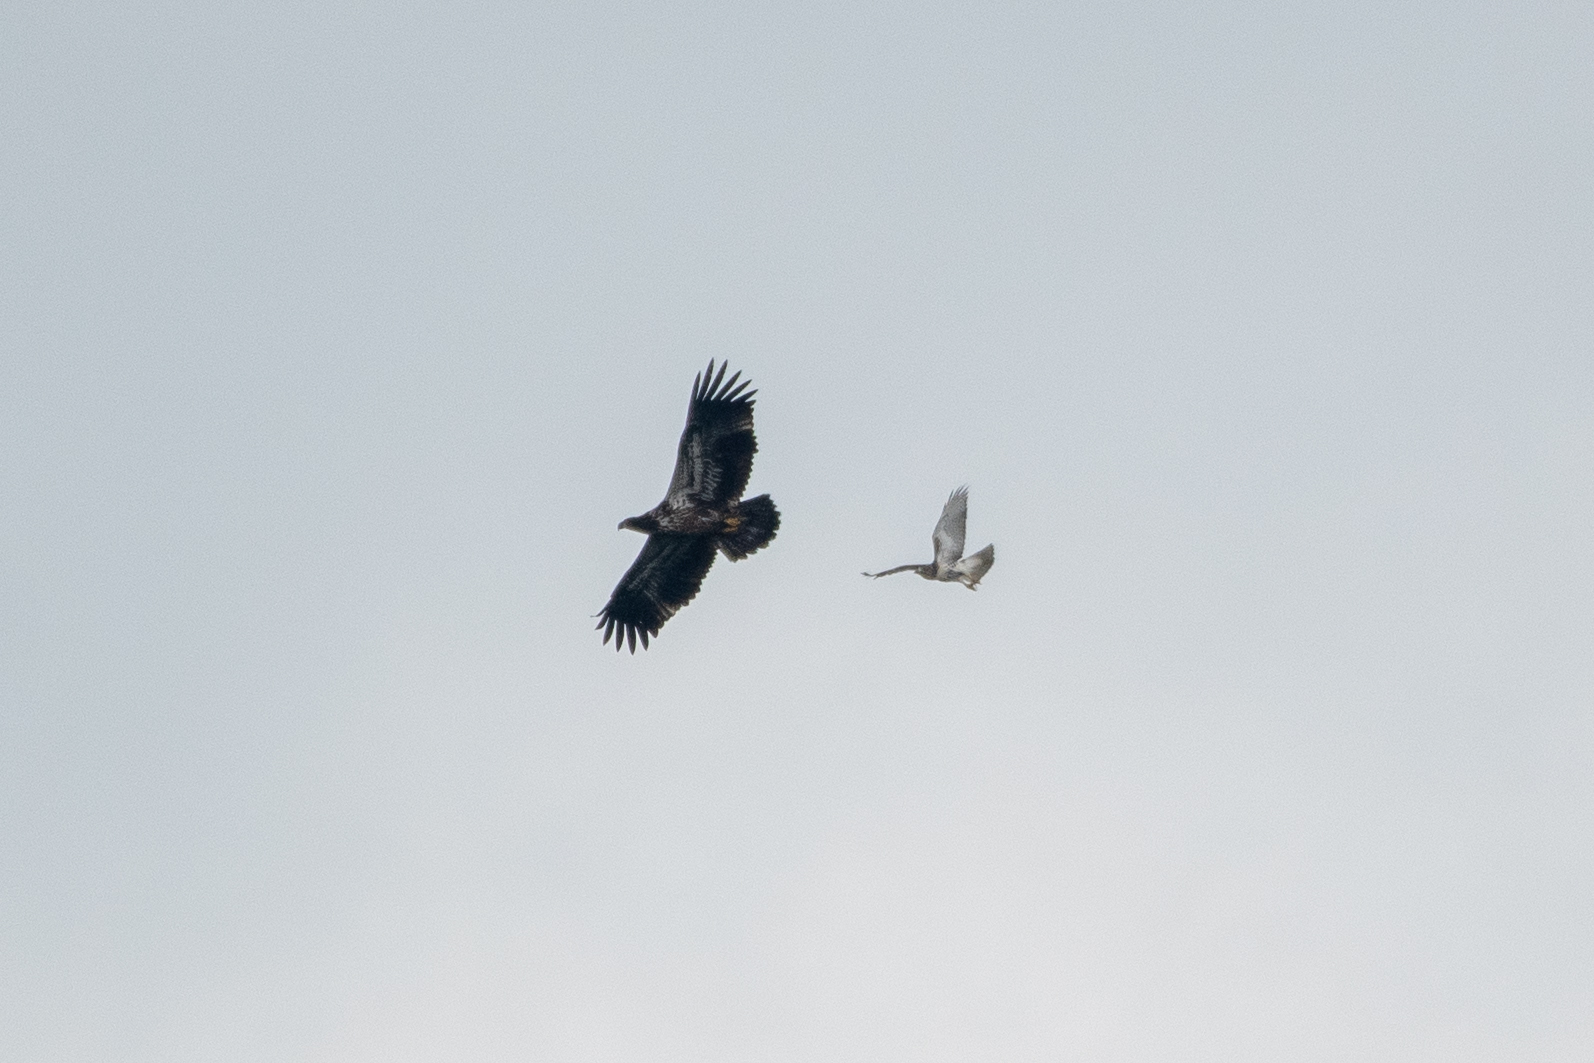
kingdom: Animalia
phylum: Chordata
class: Aves
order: Accipitriformes
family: Accipitridae
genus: Buteo
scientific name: Buteo jamaicensis
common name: Red-tailed hawk
